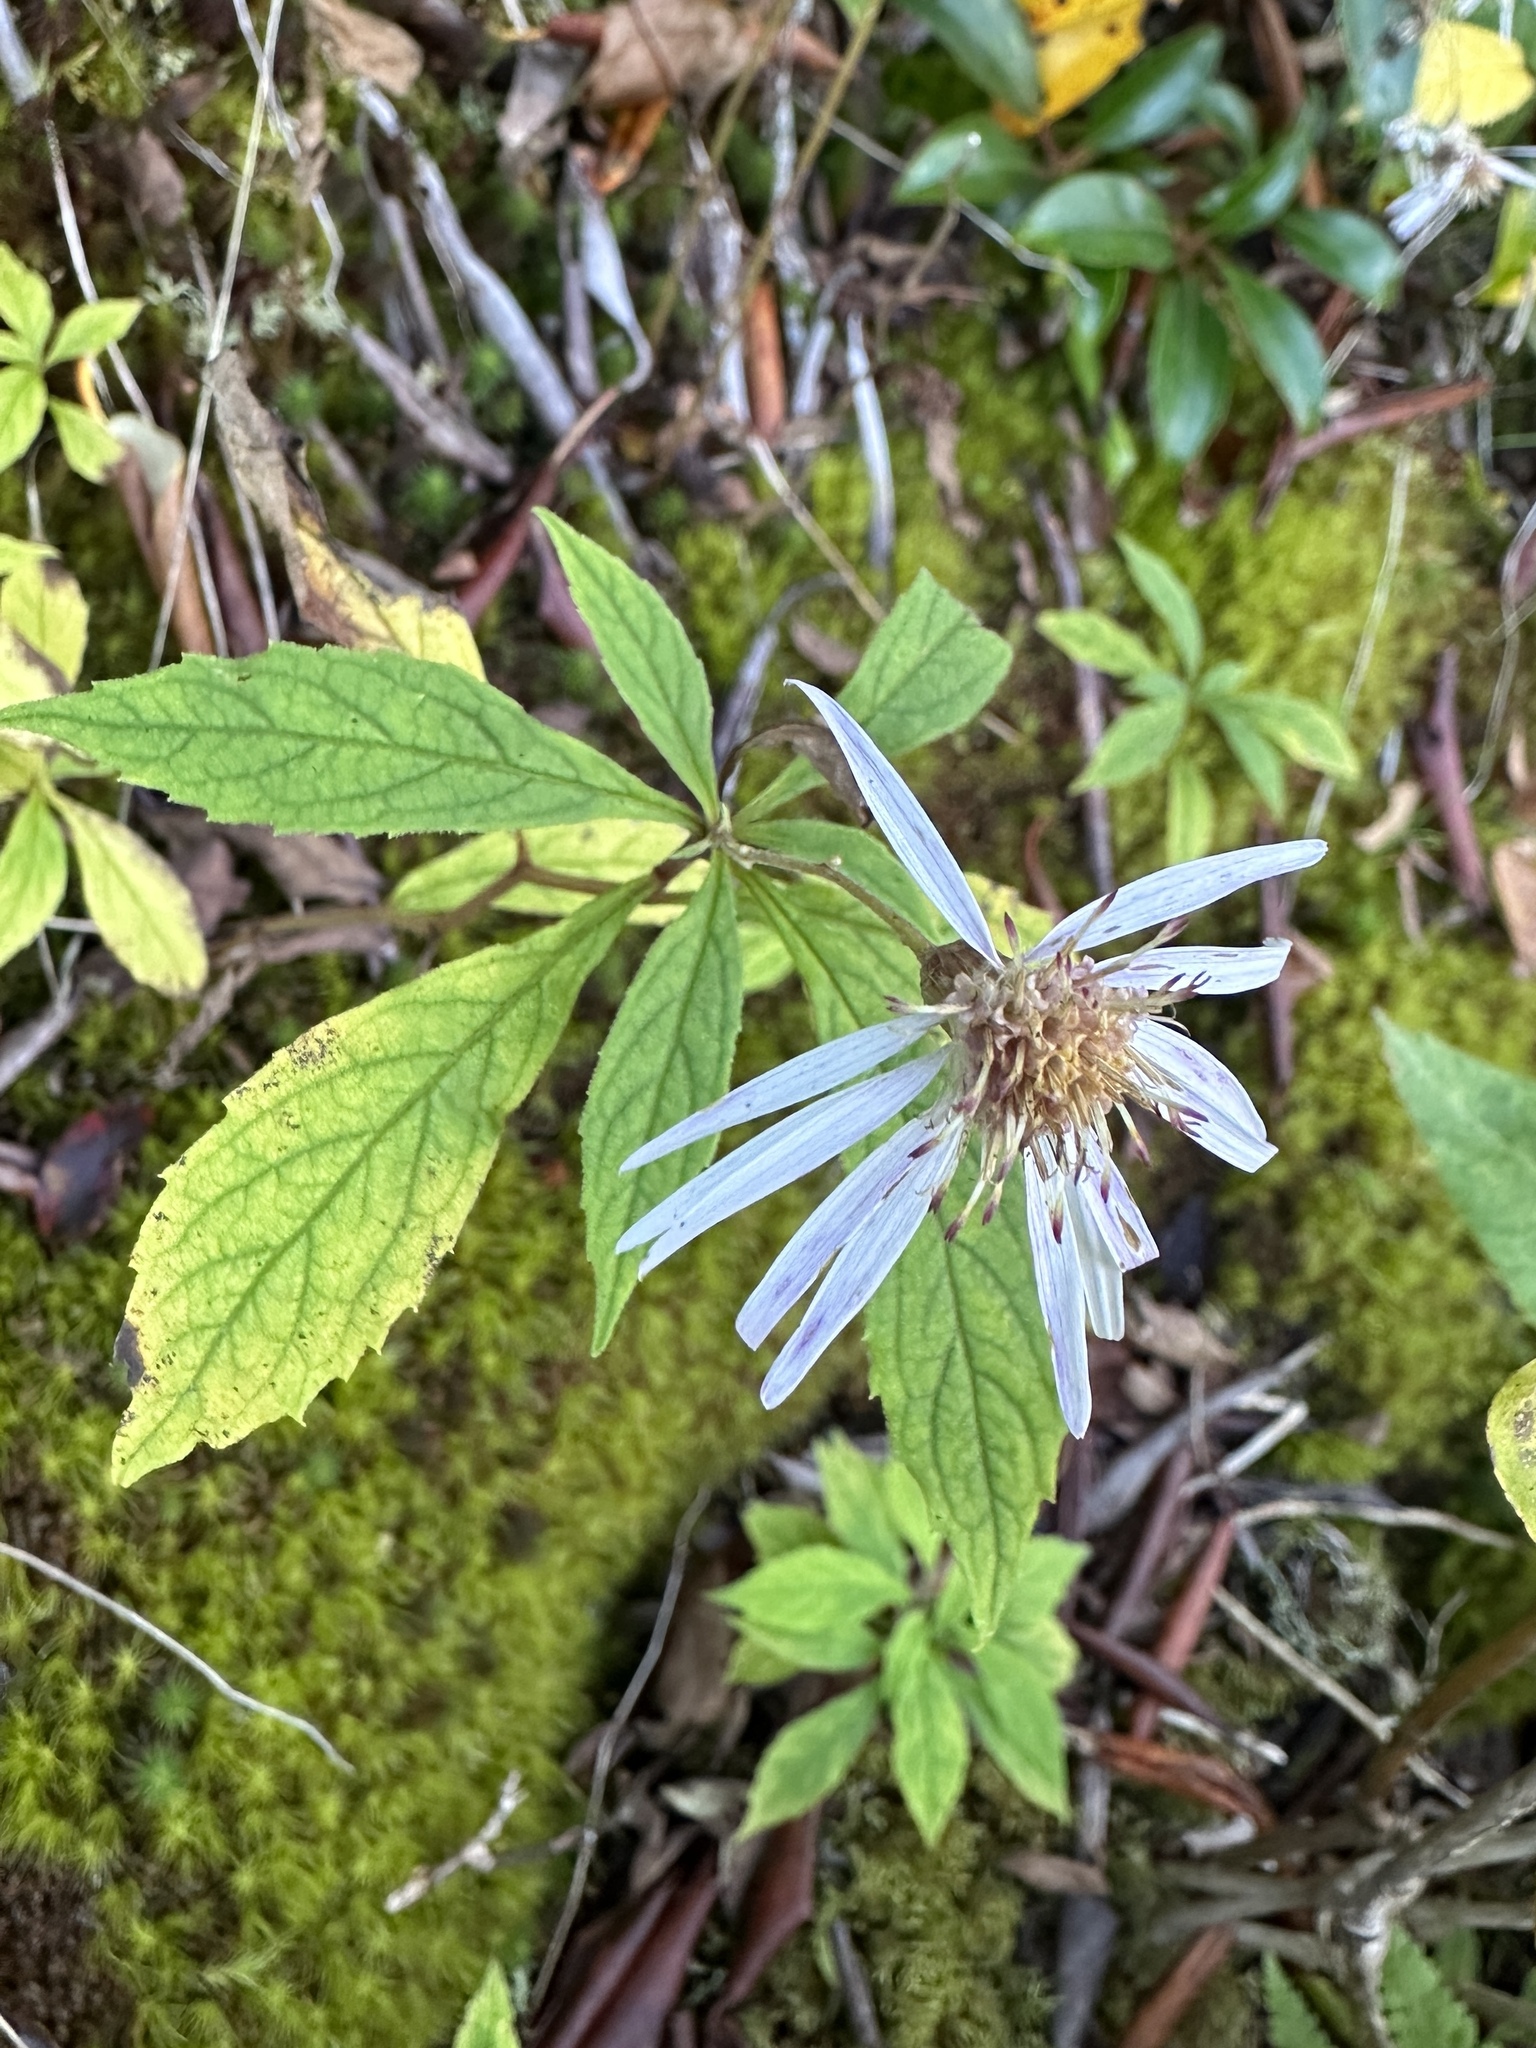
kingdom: Plantae
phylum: Tracheophyta
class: Magnoliopsida
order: Asterales
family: Asteraceae
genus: Oclemena
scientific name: Oclemena acuminata
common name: Mountain aster
